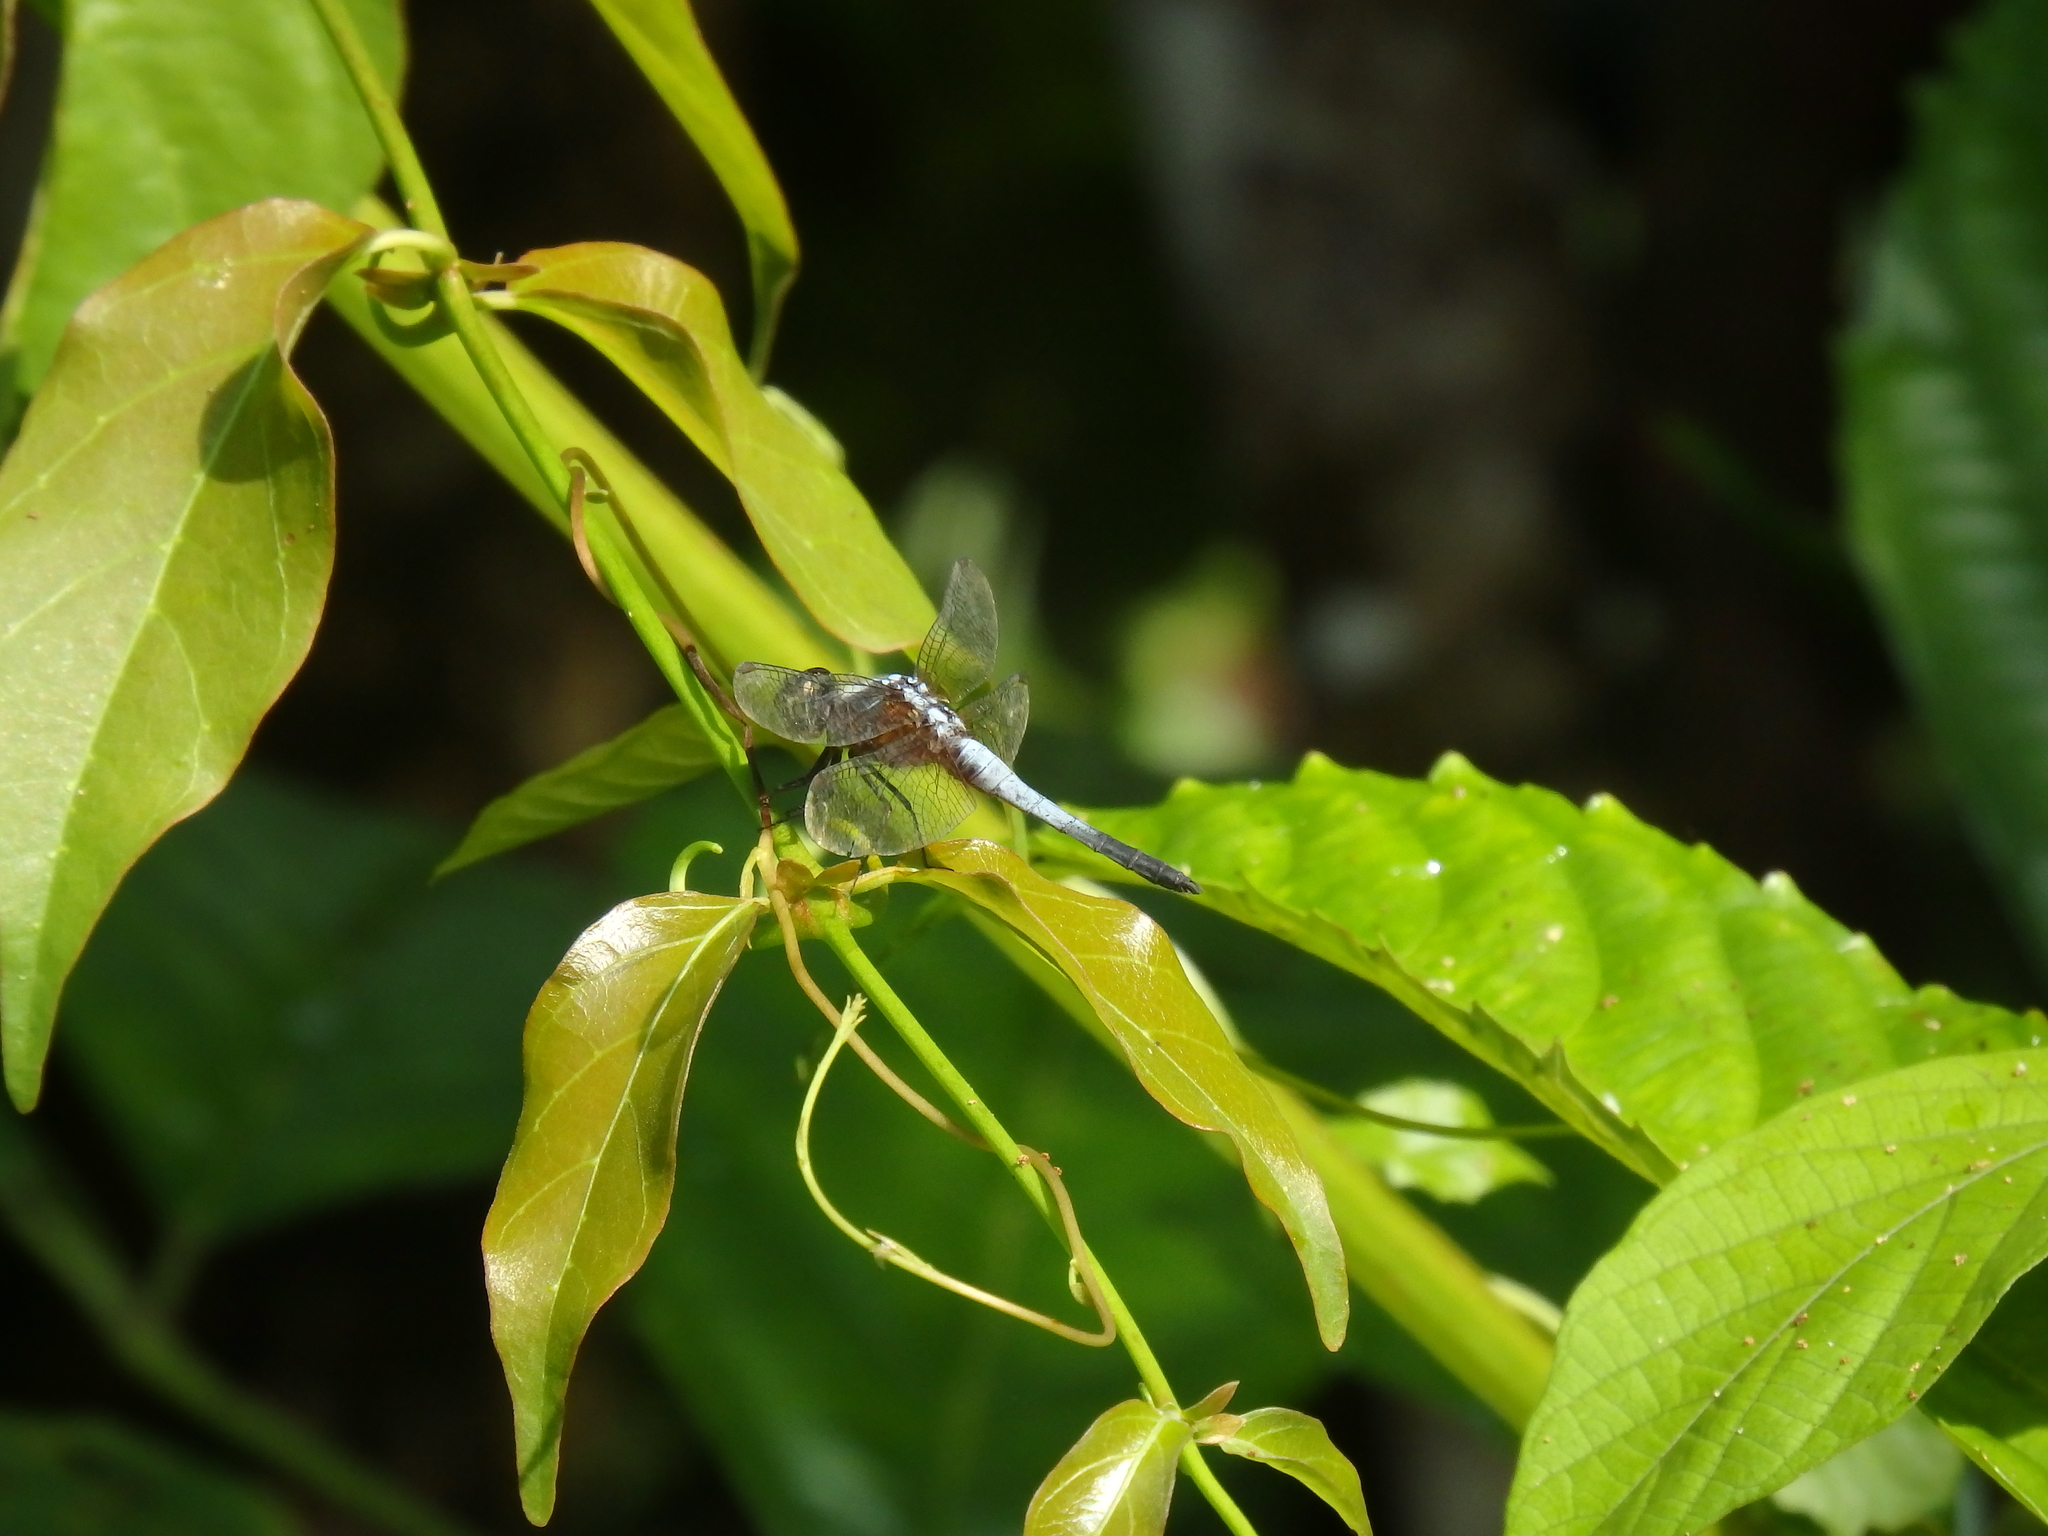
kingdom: Animalia
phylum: Arthropoda
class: Insecta
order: Odonata
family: Libellulidae
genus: Brachydiplax
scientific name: Brachydiplax chalybea
